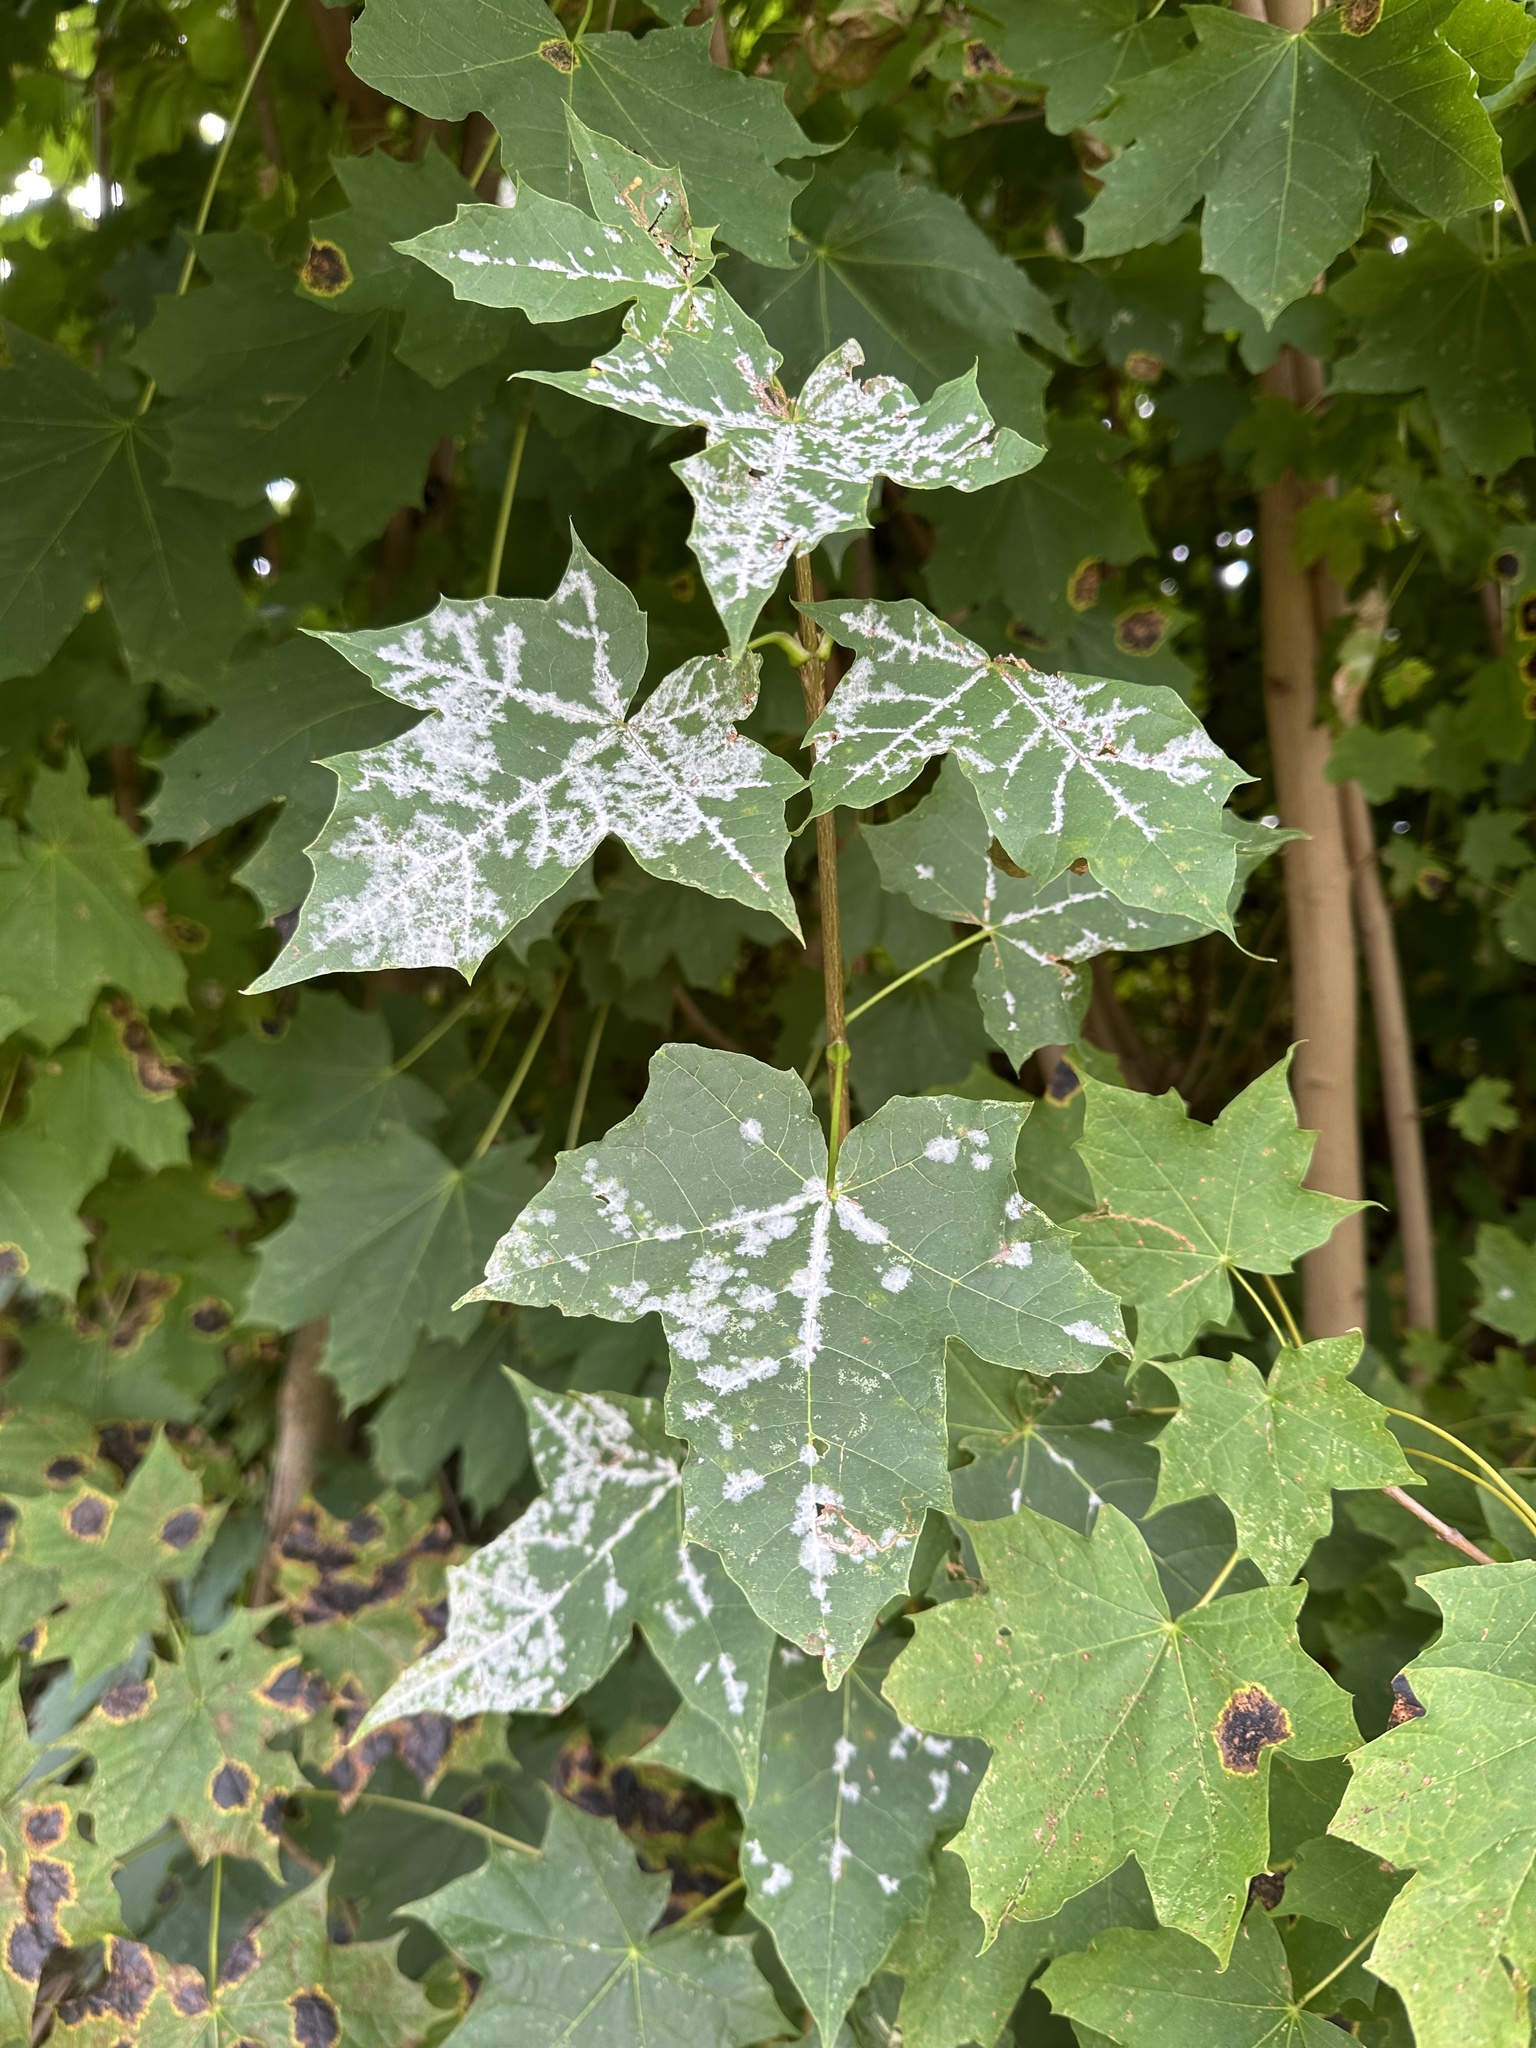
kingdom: Fungi
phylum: Ascomycota
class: Leotiomycetes
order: Helotiales
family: Erysiphaceae
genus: Sawadaea
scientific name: Sawadaea tulasnei
